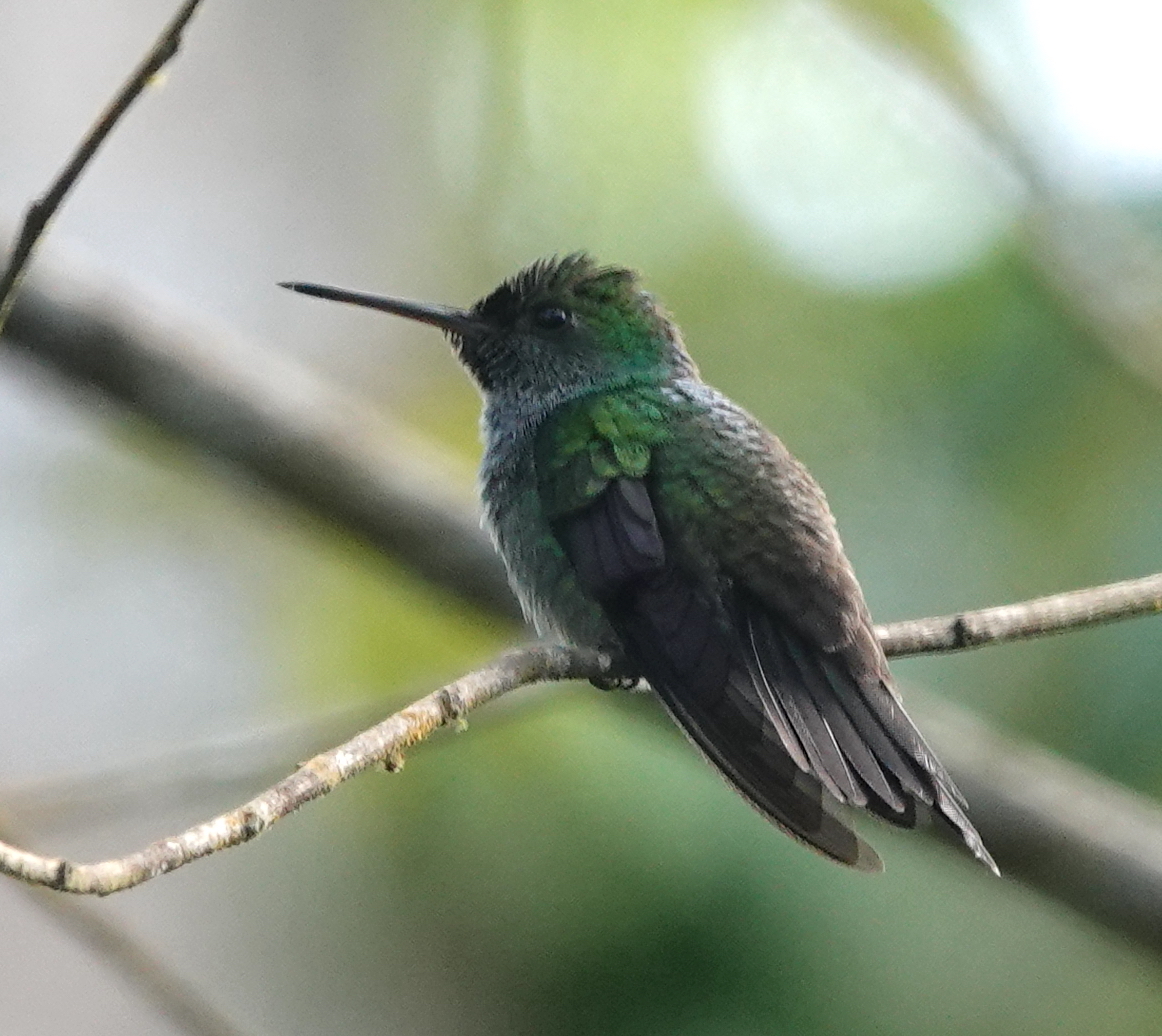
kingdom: Animalia
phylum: Chordata
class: Aves
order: Apodiformes
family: Trochilidae
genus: Polyerata
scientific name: Polyerata amabilis
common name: Blue-chested hummingbird
